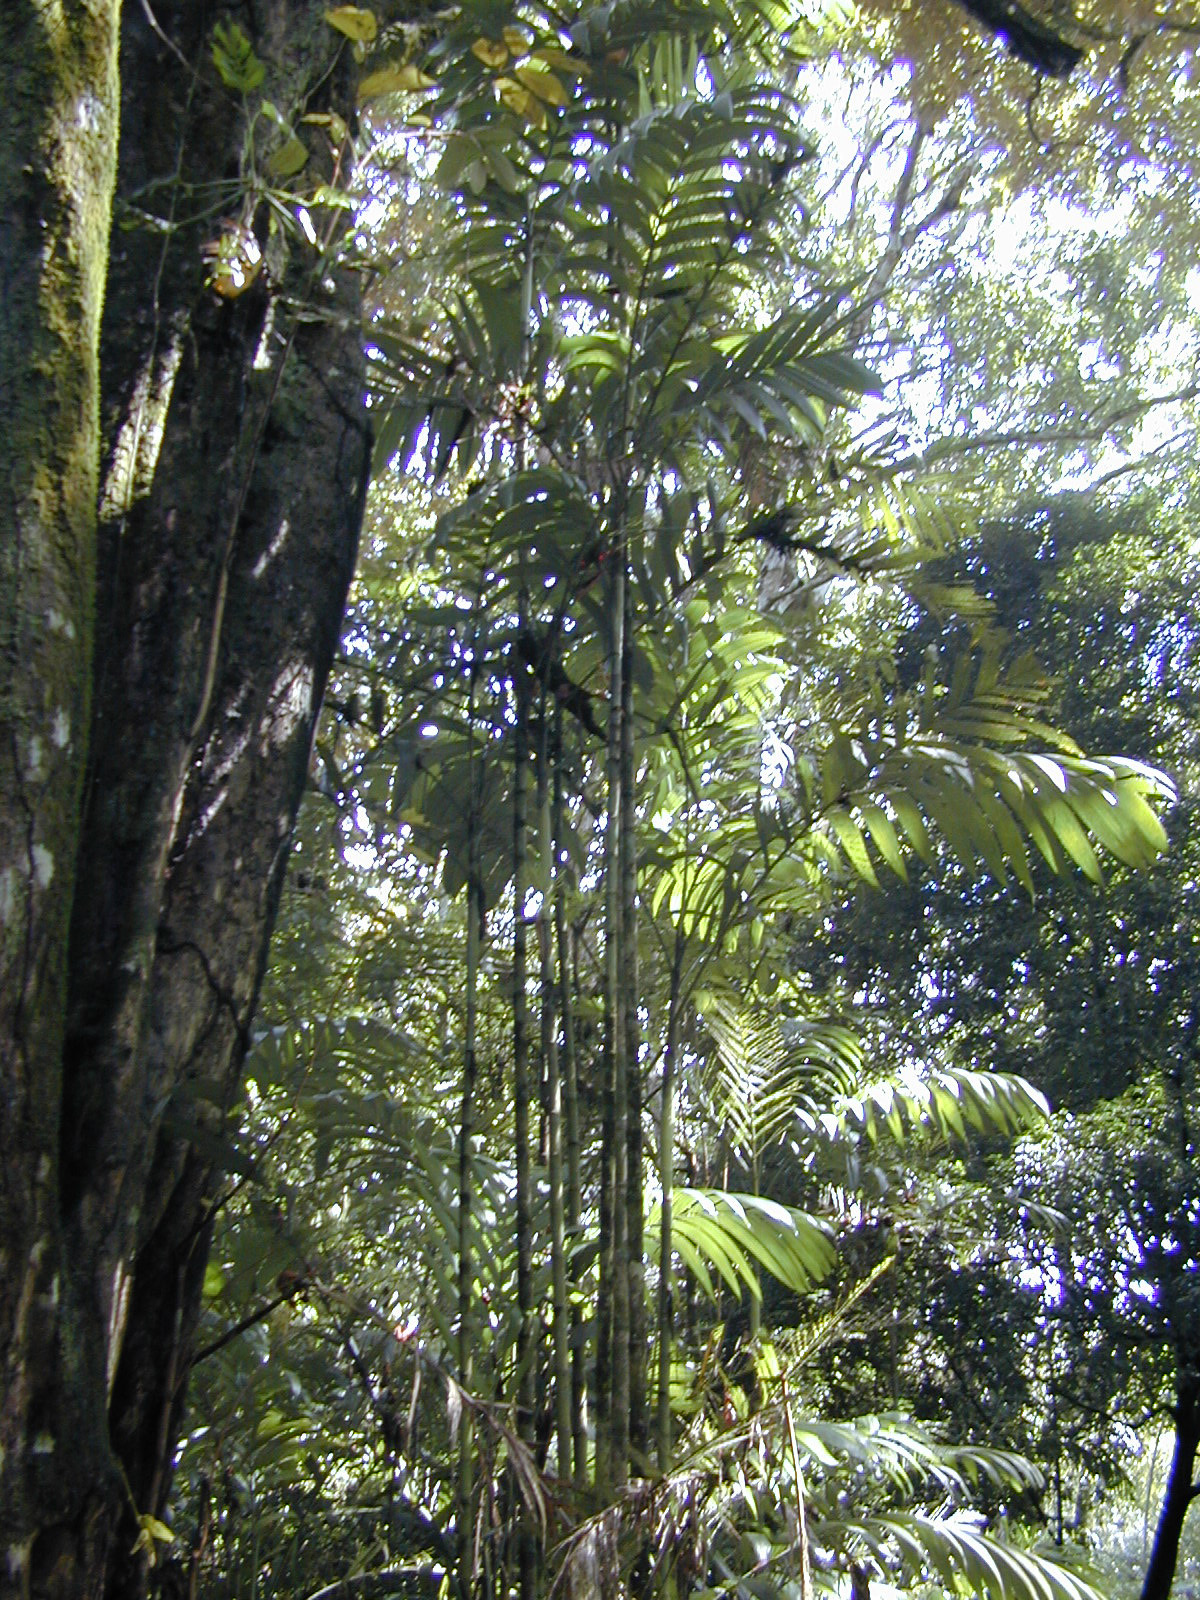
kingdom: Plantae
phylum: Tracheophyta
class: Liliopsida
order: Arecales
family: Arecaceae
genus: Areca
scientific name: Areca triandra
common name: Australian areca palm
